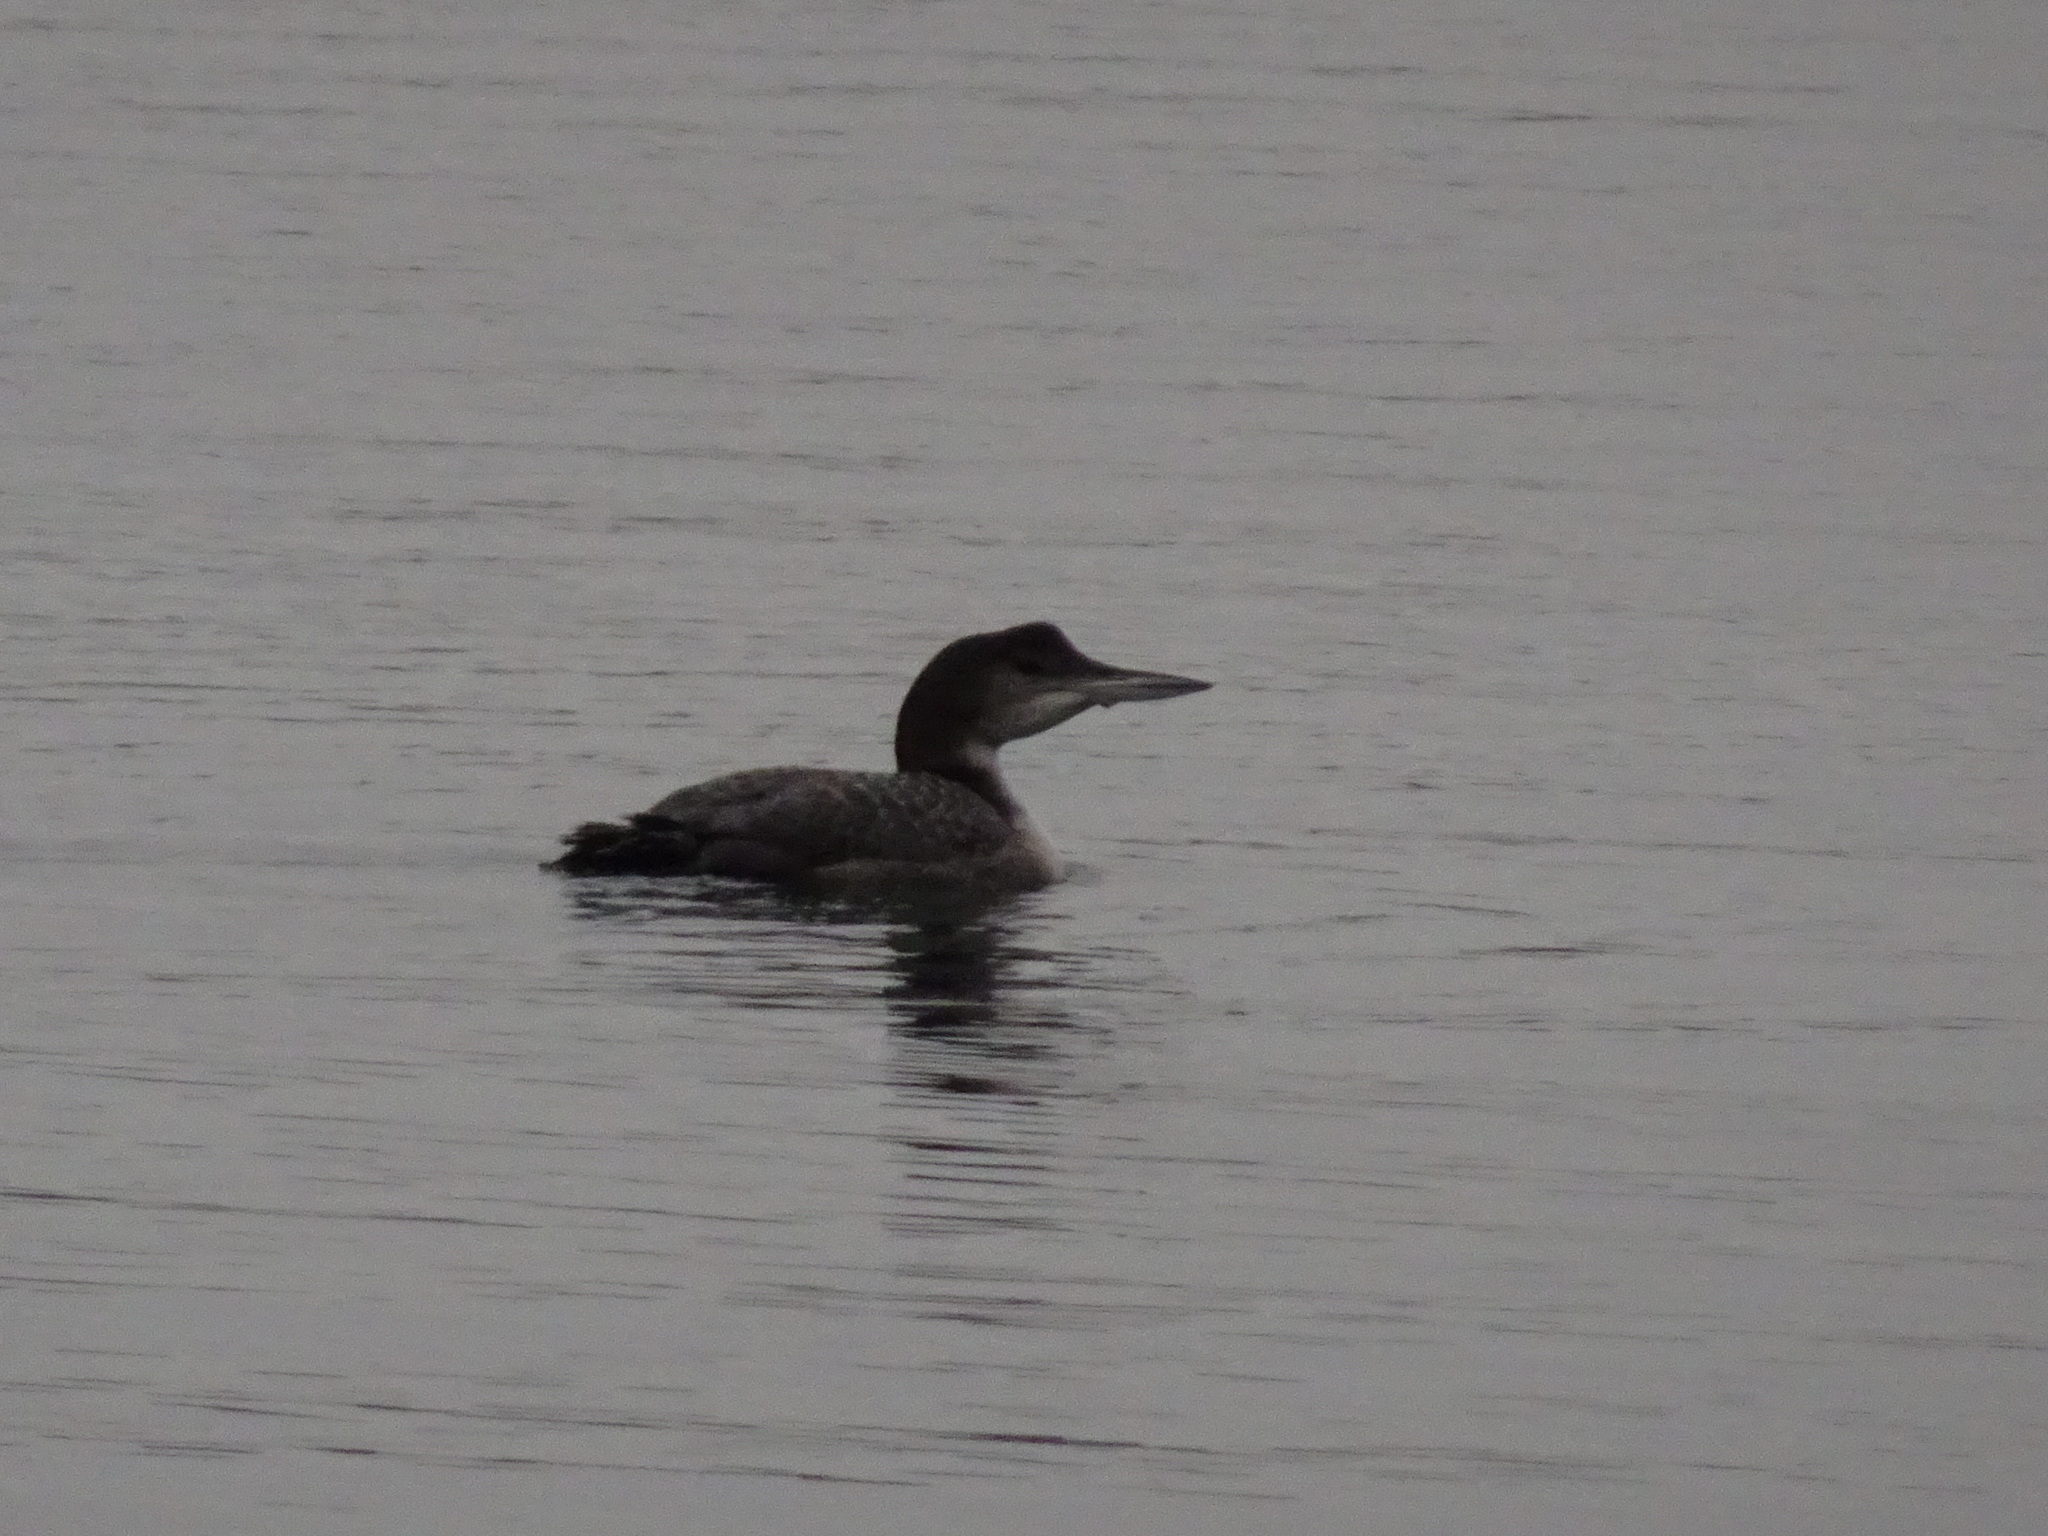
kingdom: Animalia
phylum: Chordata
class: Aves
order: Gaviiformes
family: Gaviidae
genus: Gavia
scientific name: Gavia immer
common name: Common loon
